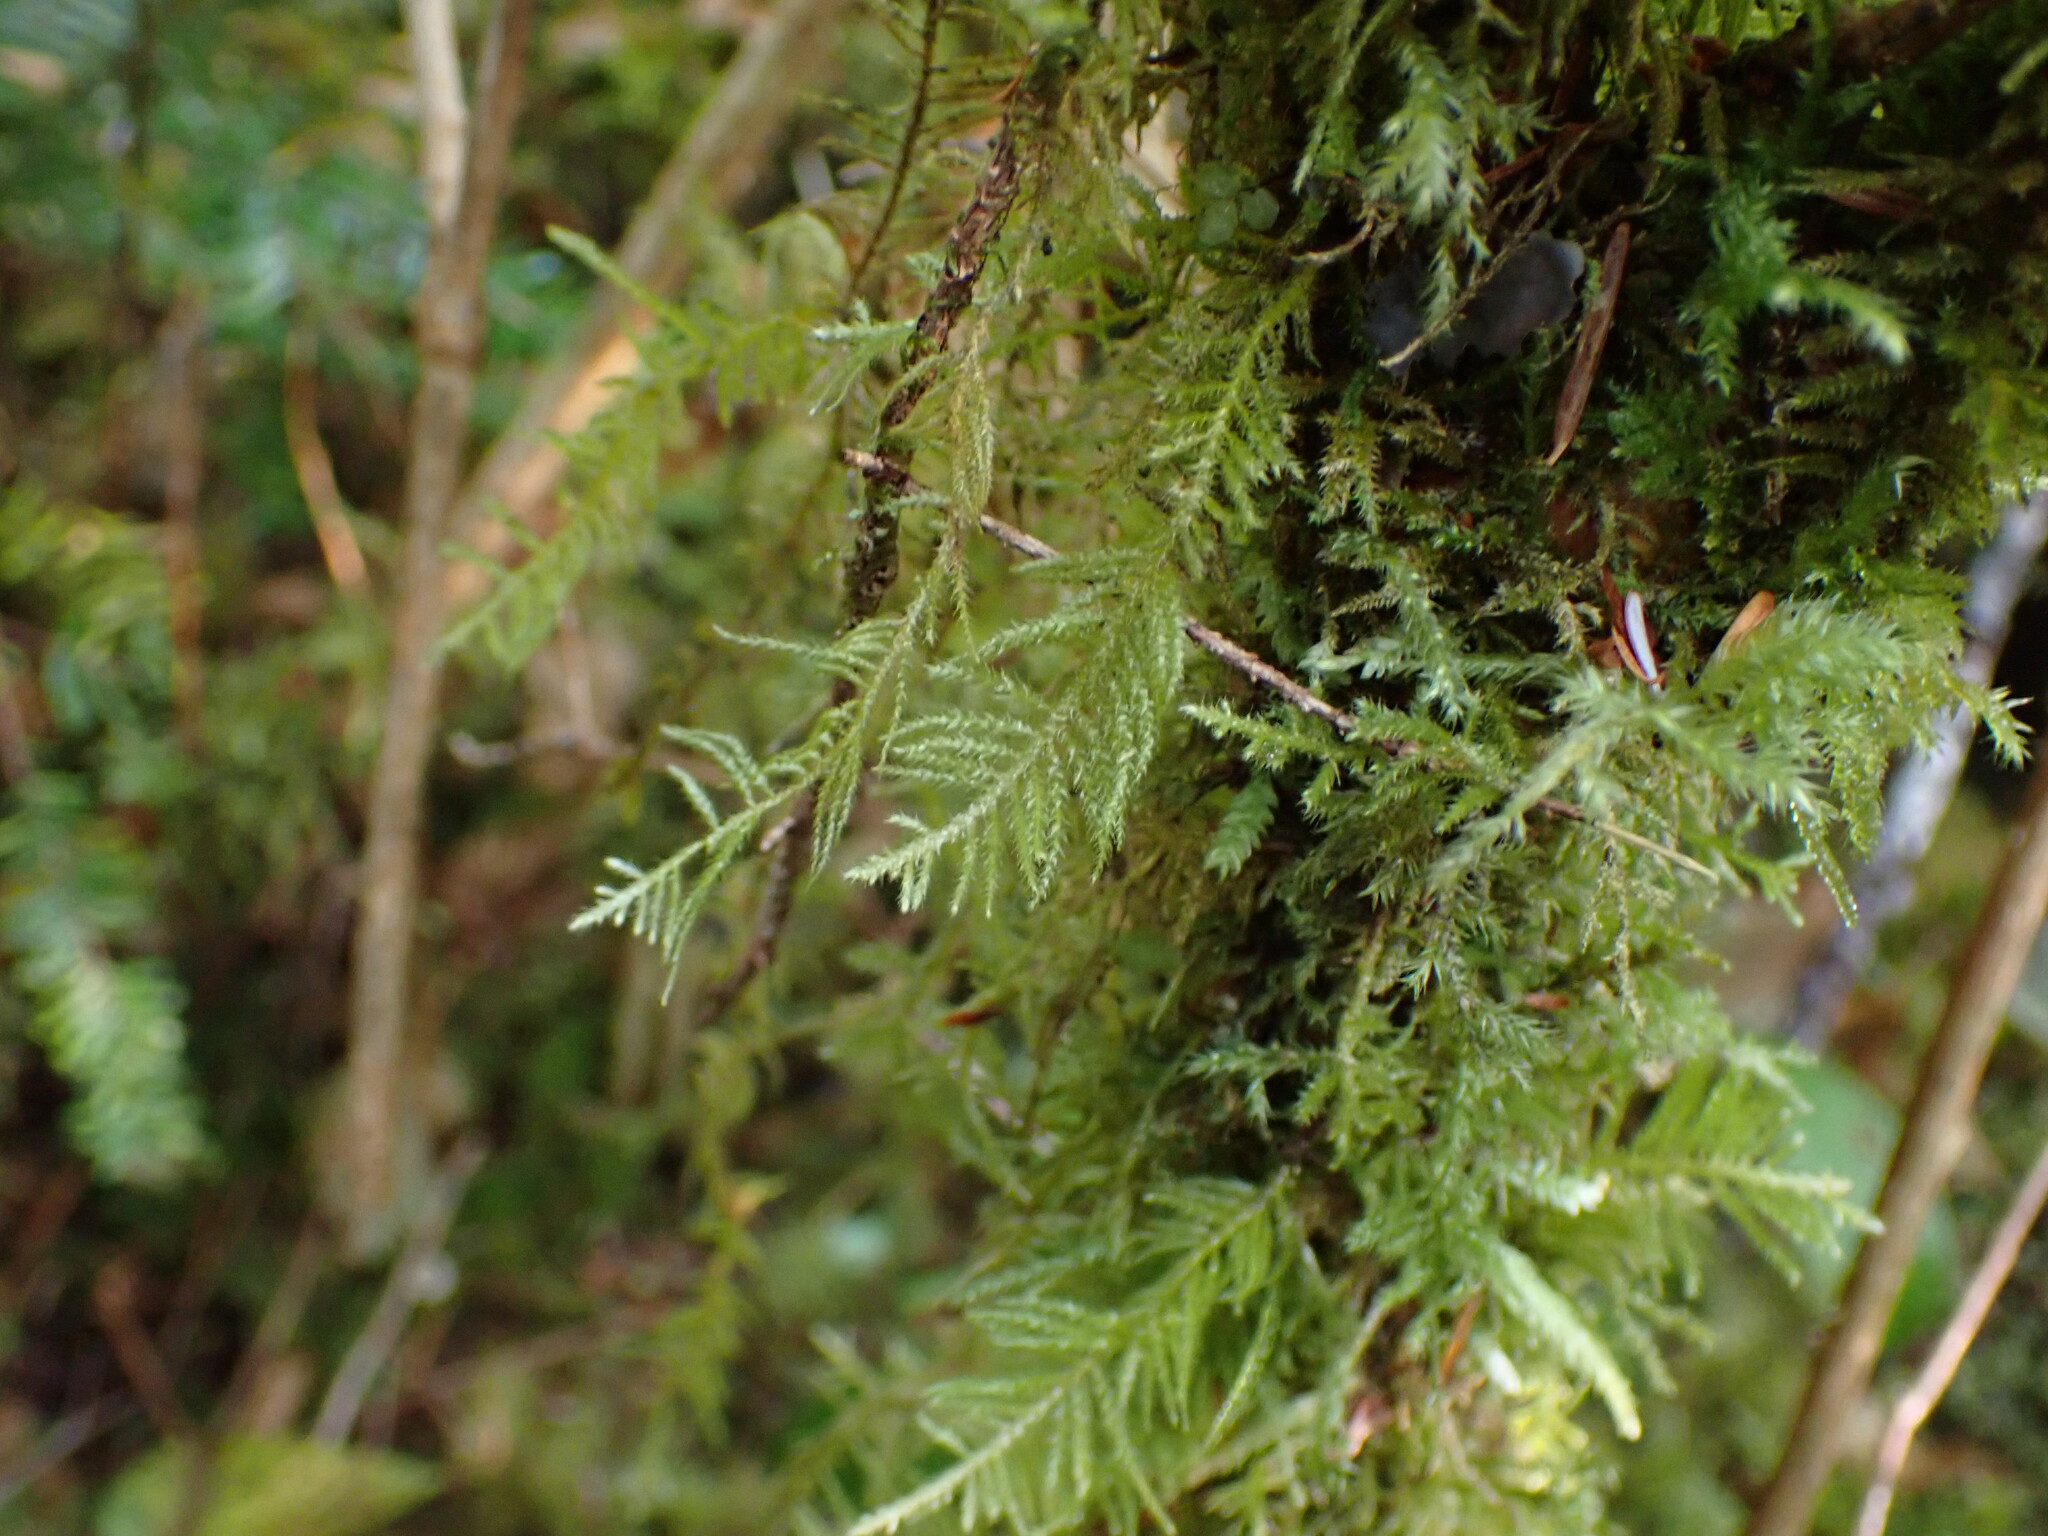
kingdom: Plantae
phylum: Bryophyta
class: Bryopsida
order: Hypnales
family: Brachytheciaceae
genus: Kindbergia
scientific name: Kindbergia oregana
